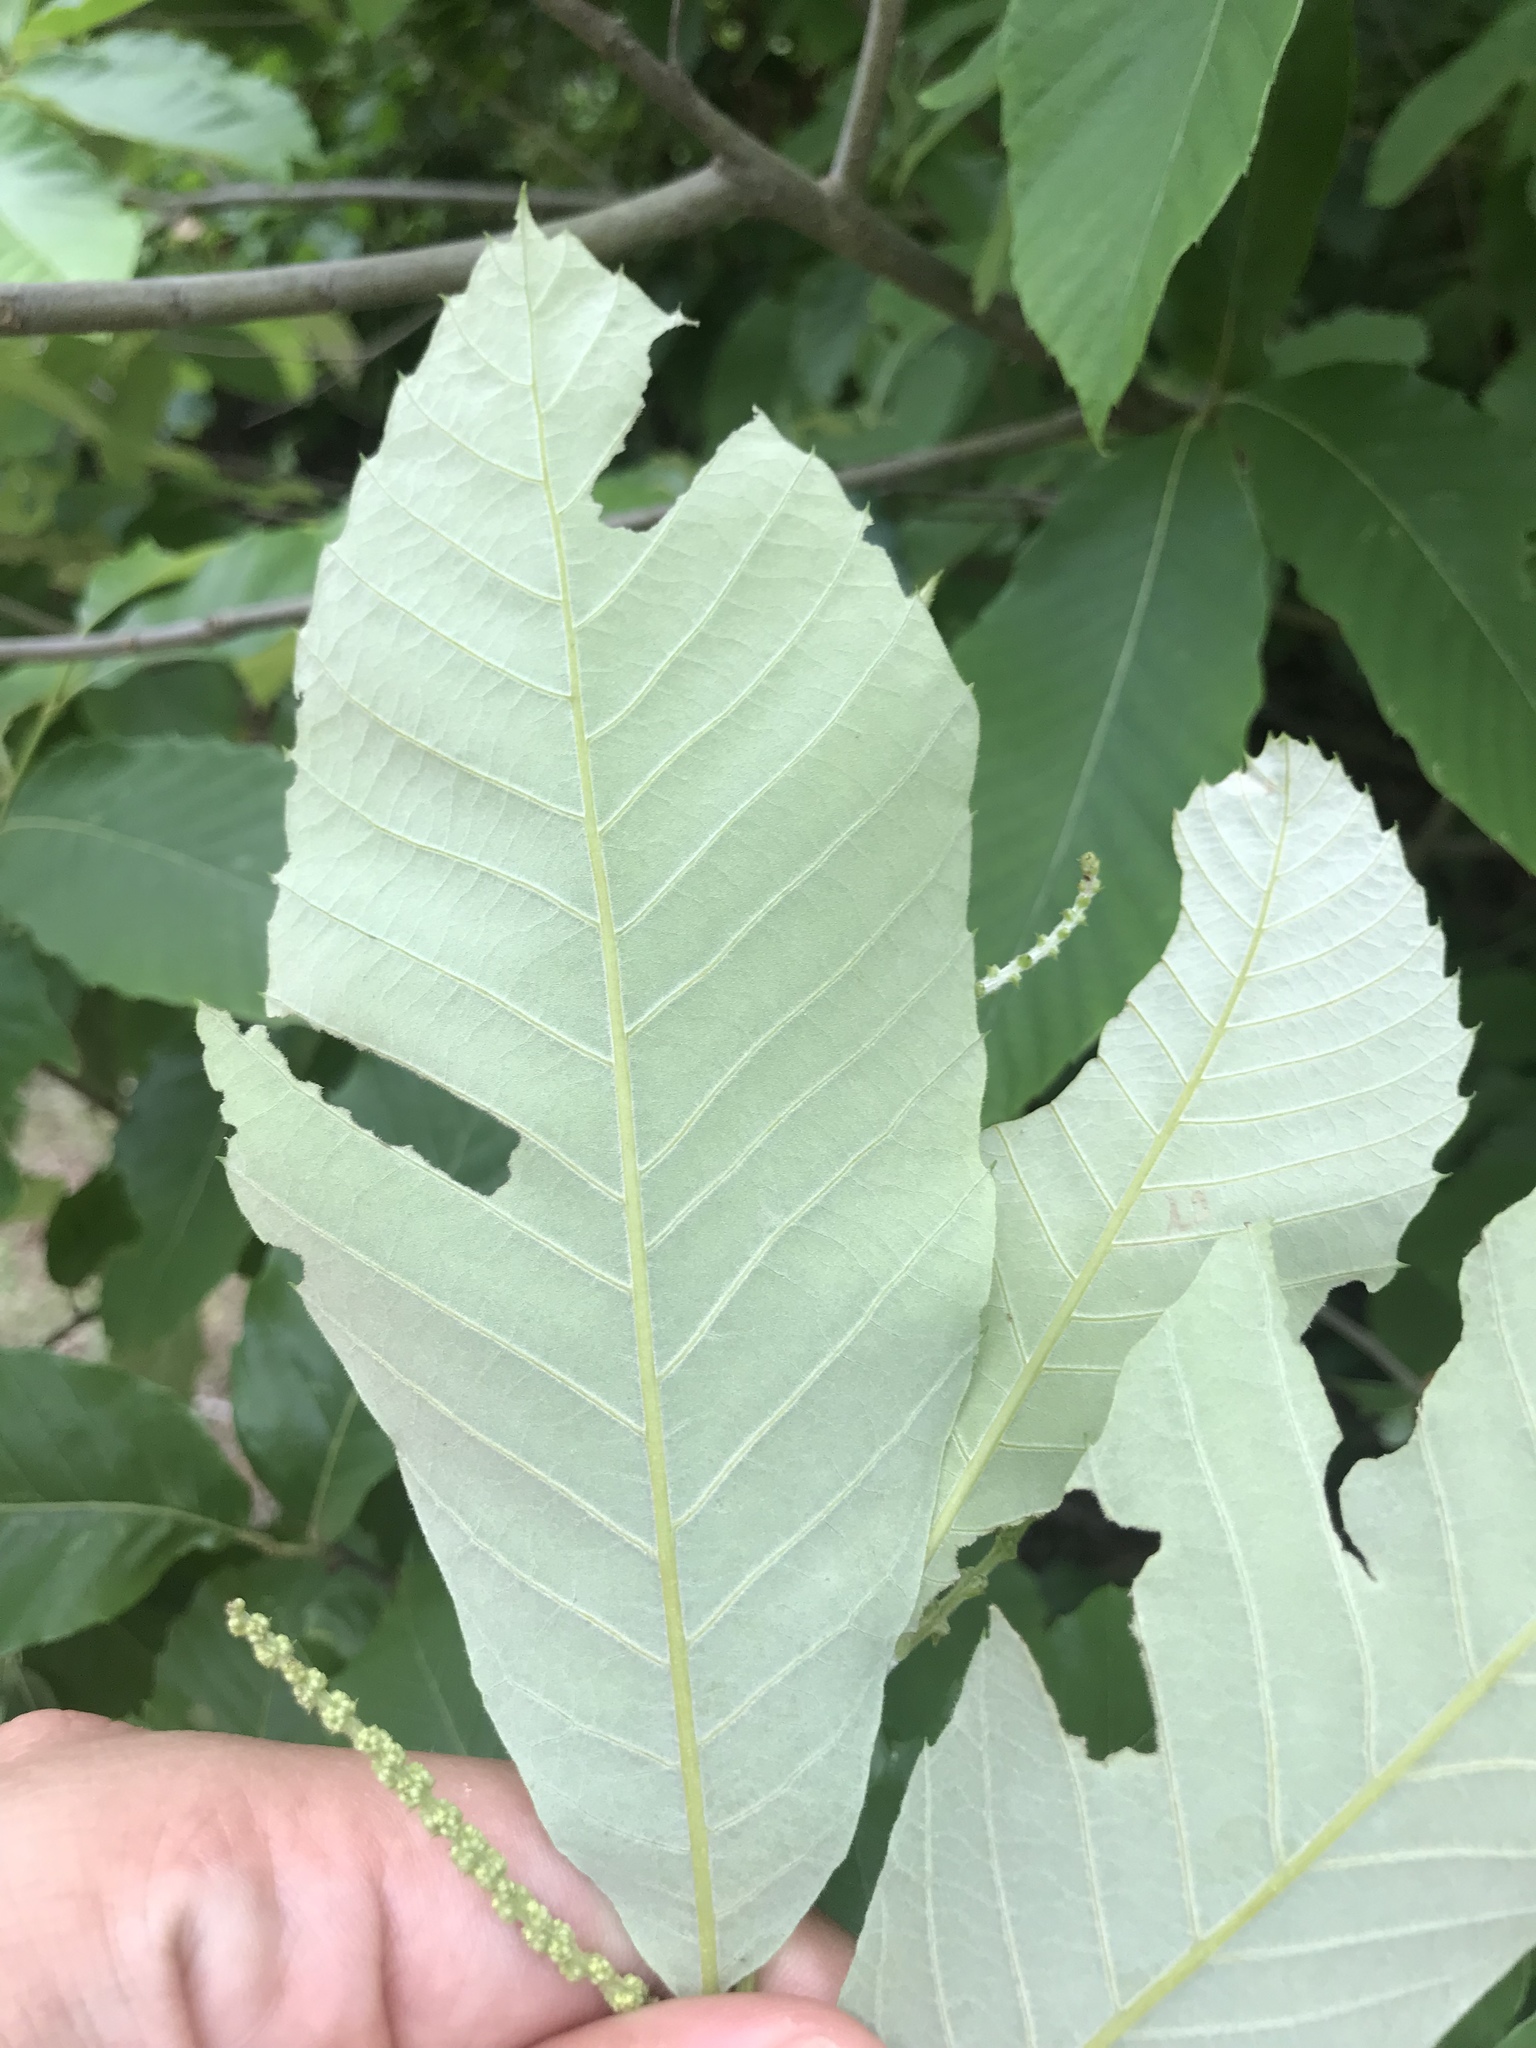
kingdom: Plantae
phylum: Tracheophyta
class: Magnoliopsida
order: Fagales
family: Fagaceae
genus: Castanea
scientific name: Castanea pumila
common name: Chinkapin
